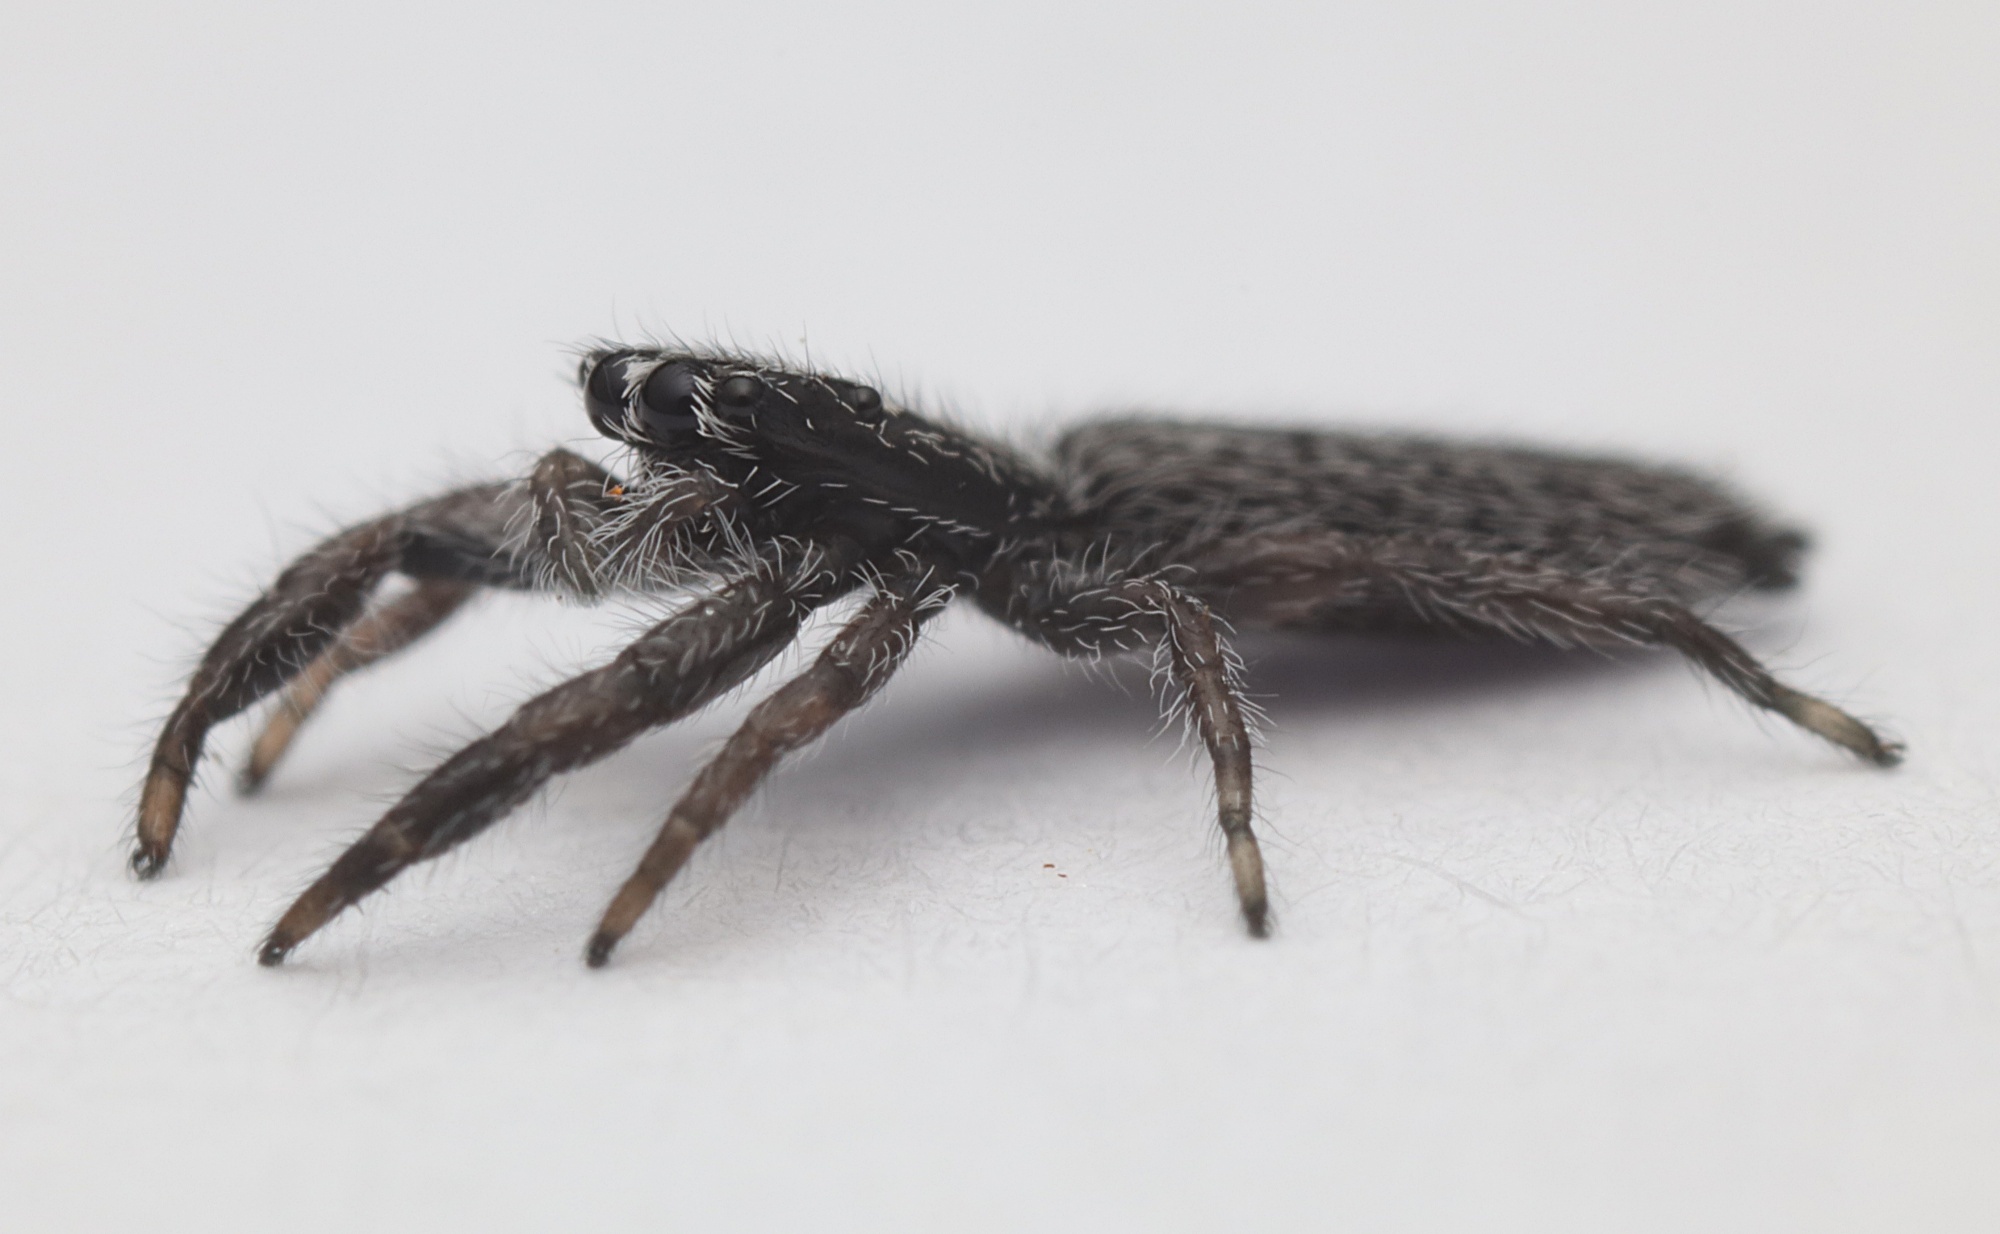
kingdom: Animalia
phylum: Arthropoda
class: Arachnida
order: Araneae
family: Salticidae
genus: Holoplatys
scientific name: Holoplatys apressus
